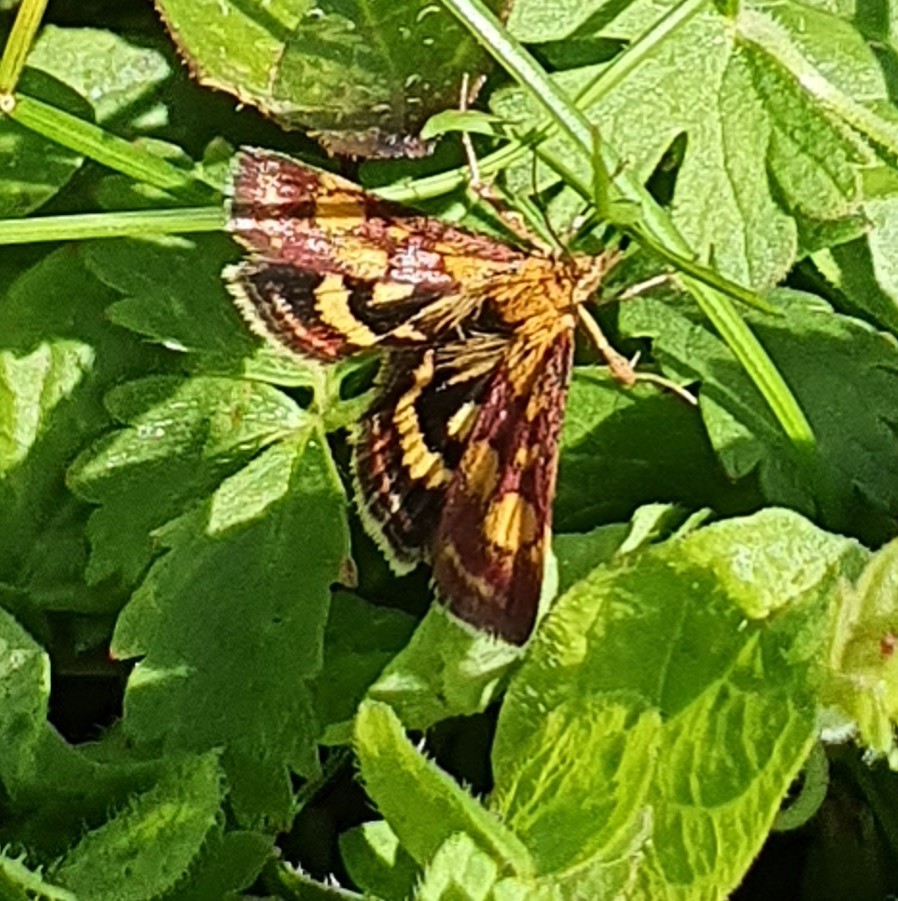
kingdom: Animalia
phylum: Arthropoda
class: Insecta
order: Lepidoptera
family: Crambidae
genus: Pyrausta
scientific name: Pyrausta purpuralis
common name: Common purple & gold
